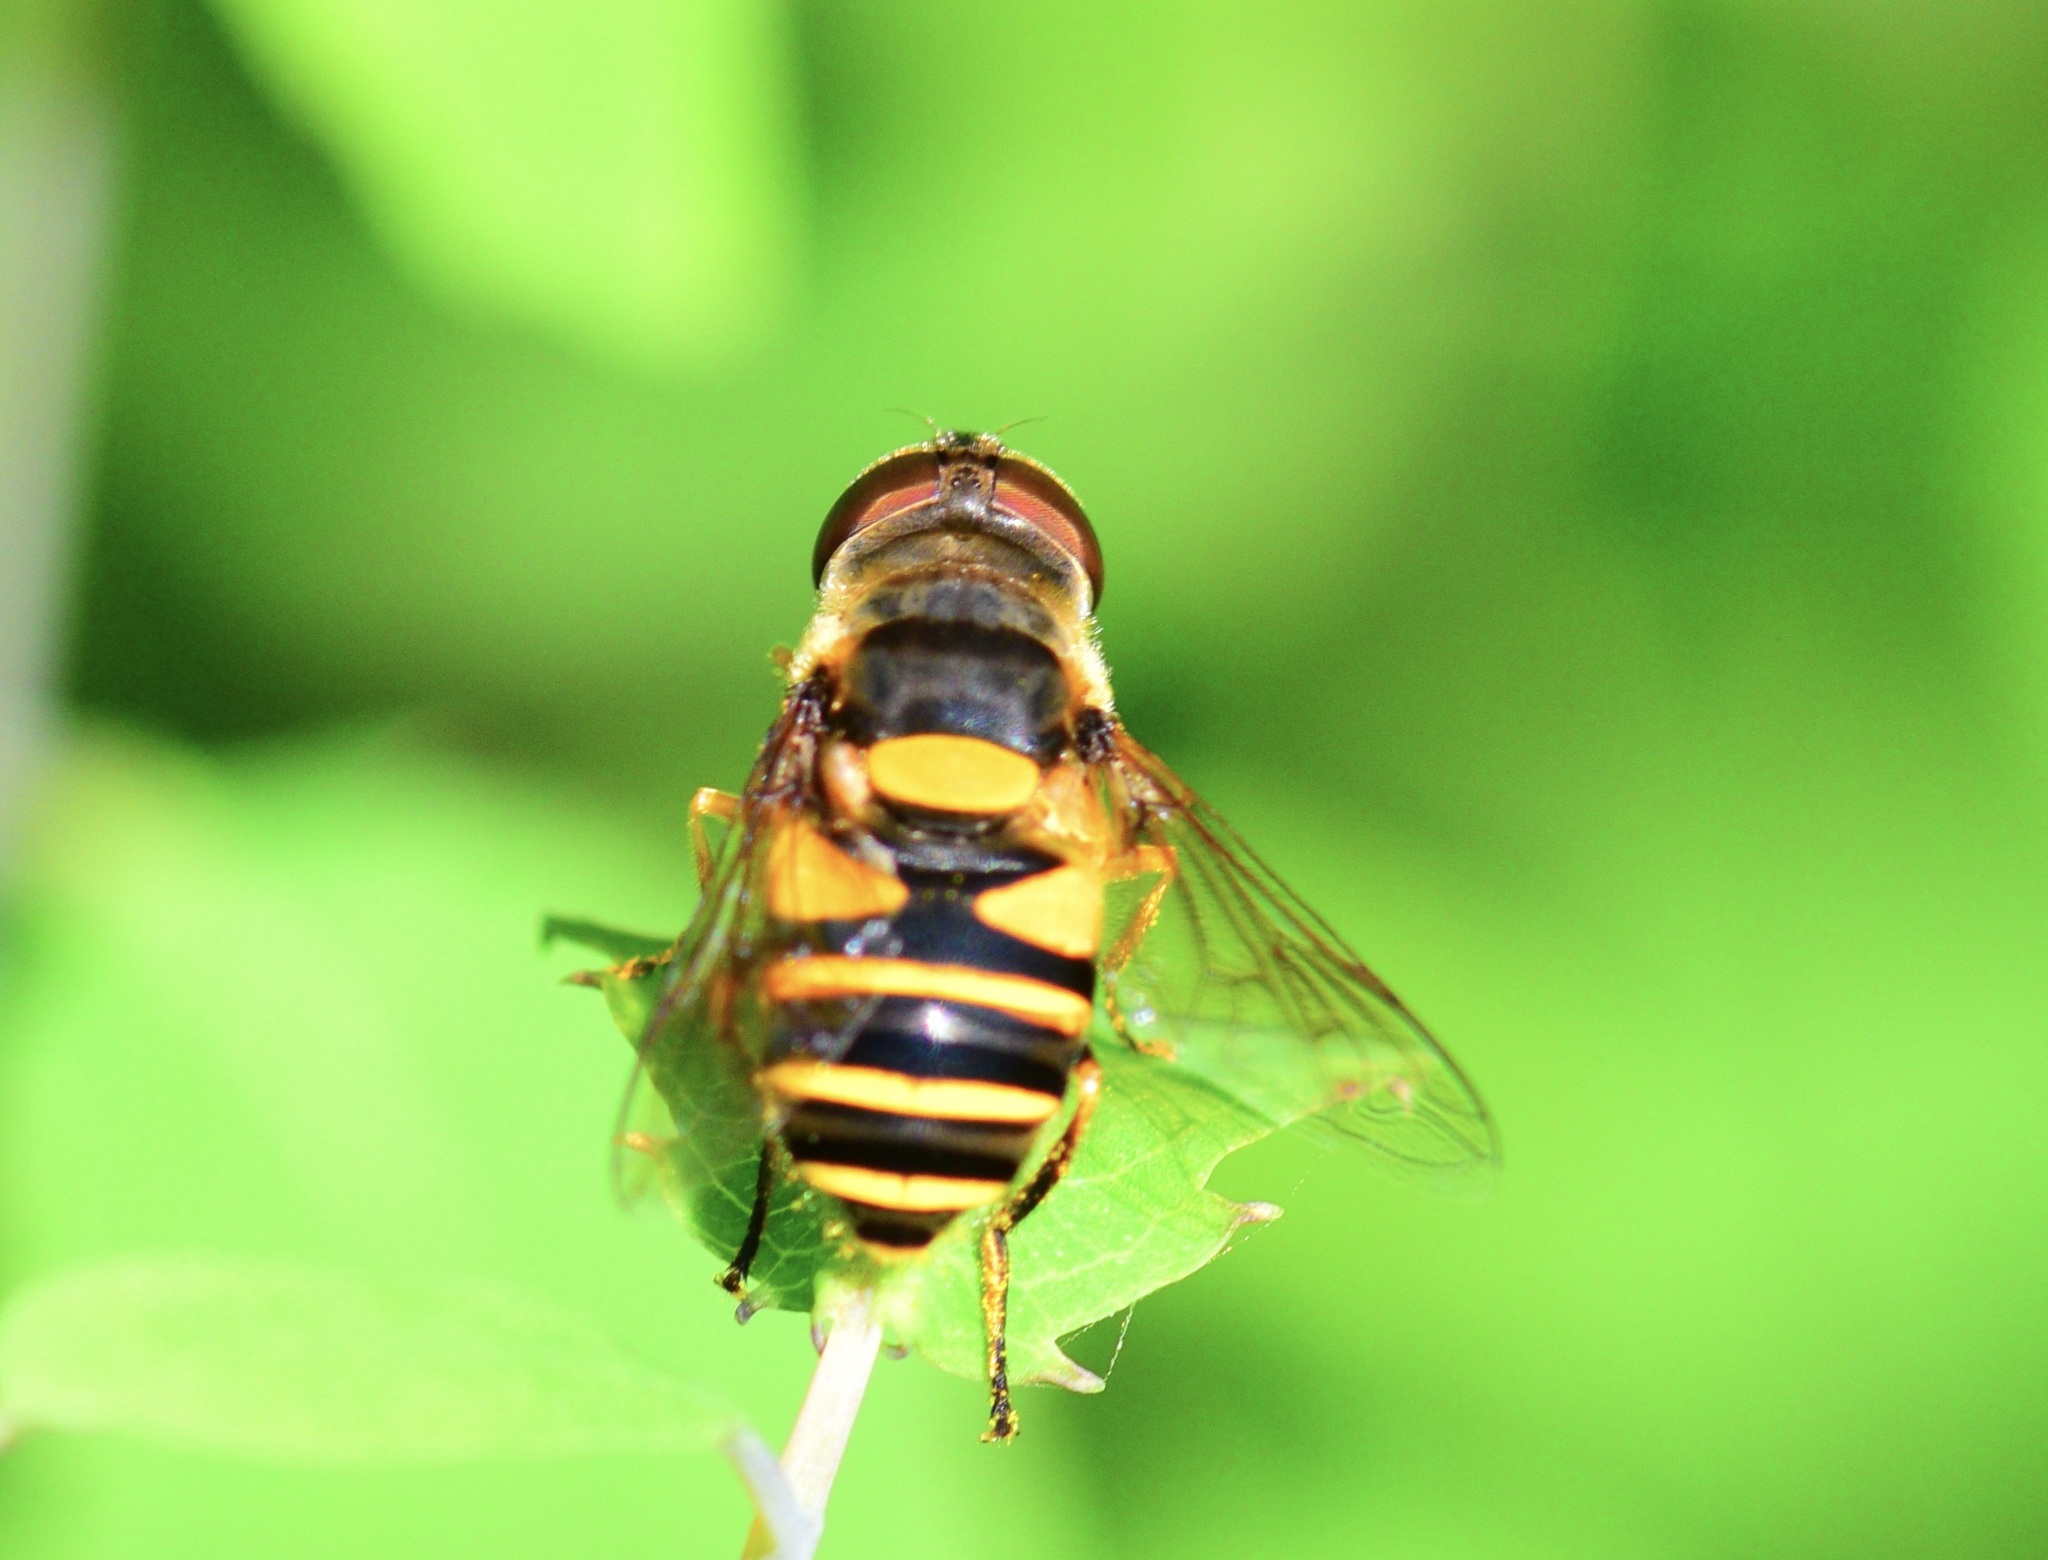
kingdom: Animalia
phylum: Arthropoda
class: Insecta
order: Diptera
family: Syrphidae
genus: Eristalis
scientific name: Eristalis transversa
